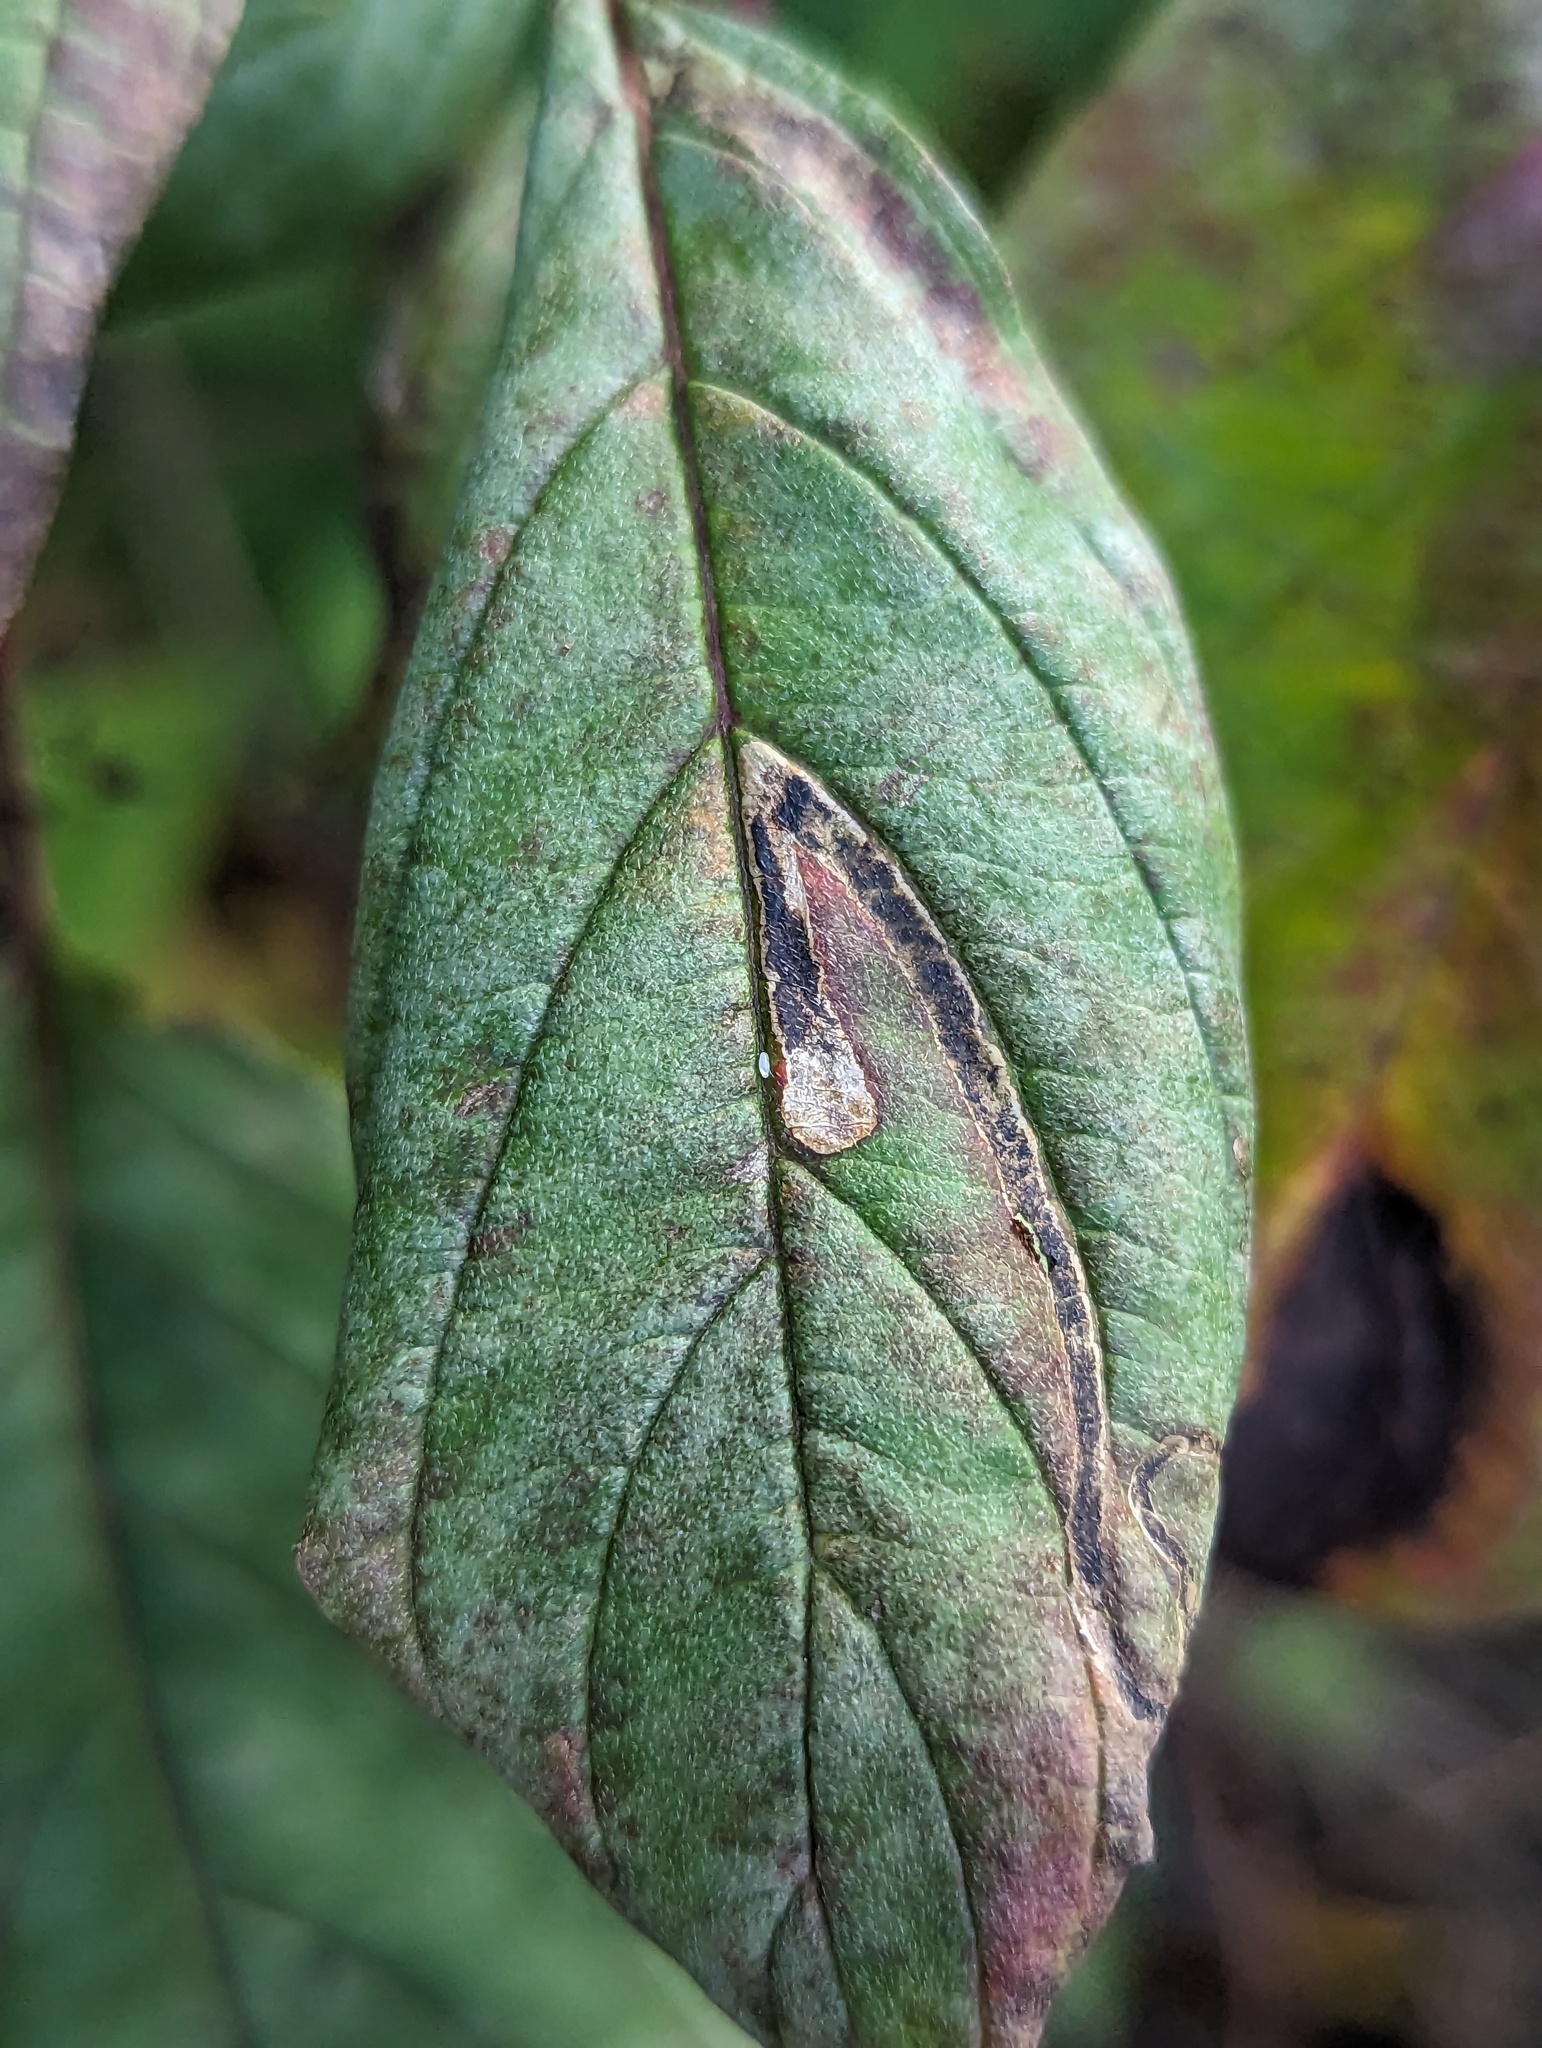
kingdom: Animalia
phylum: Arthropoda
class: Insecta
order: Diptera
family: Agromyzidae
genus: Phytomyza
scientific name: Phytomyza agromyzina
